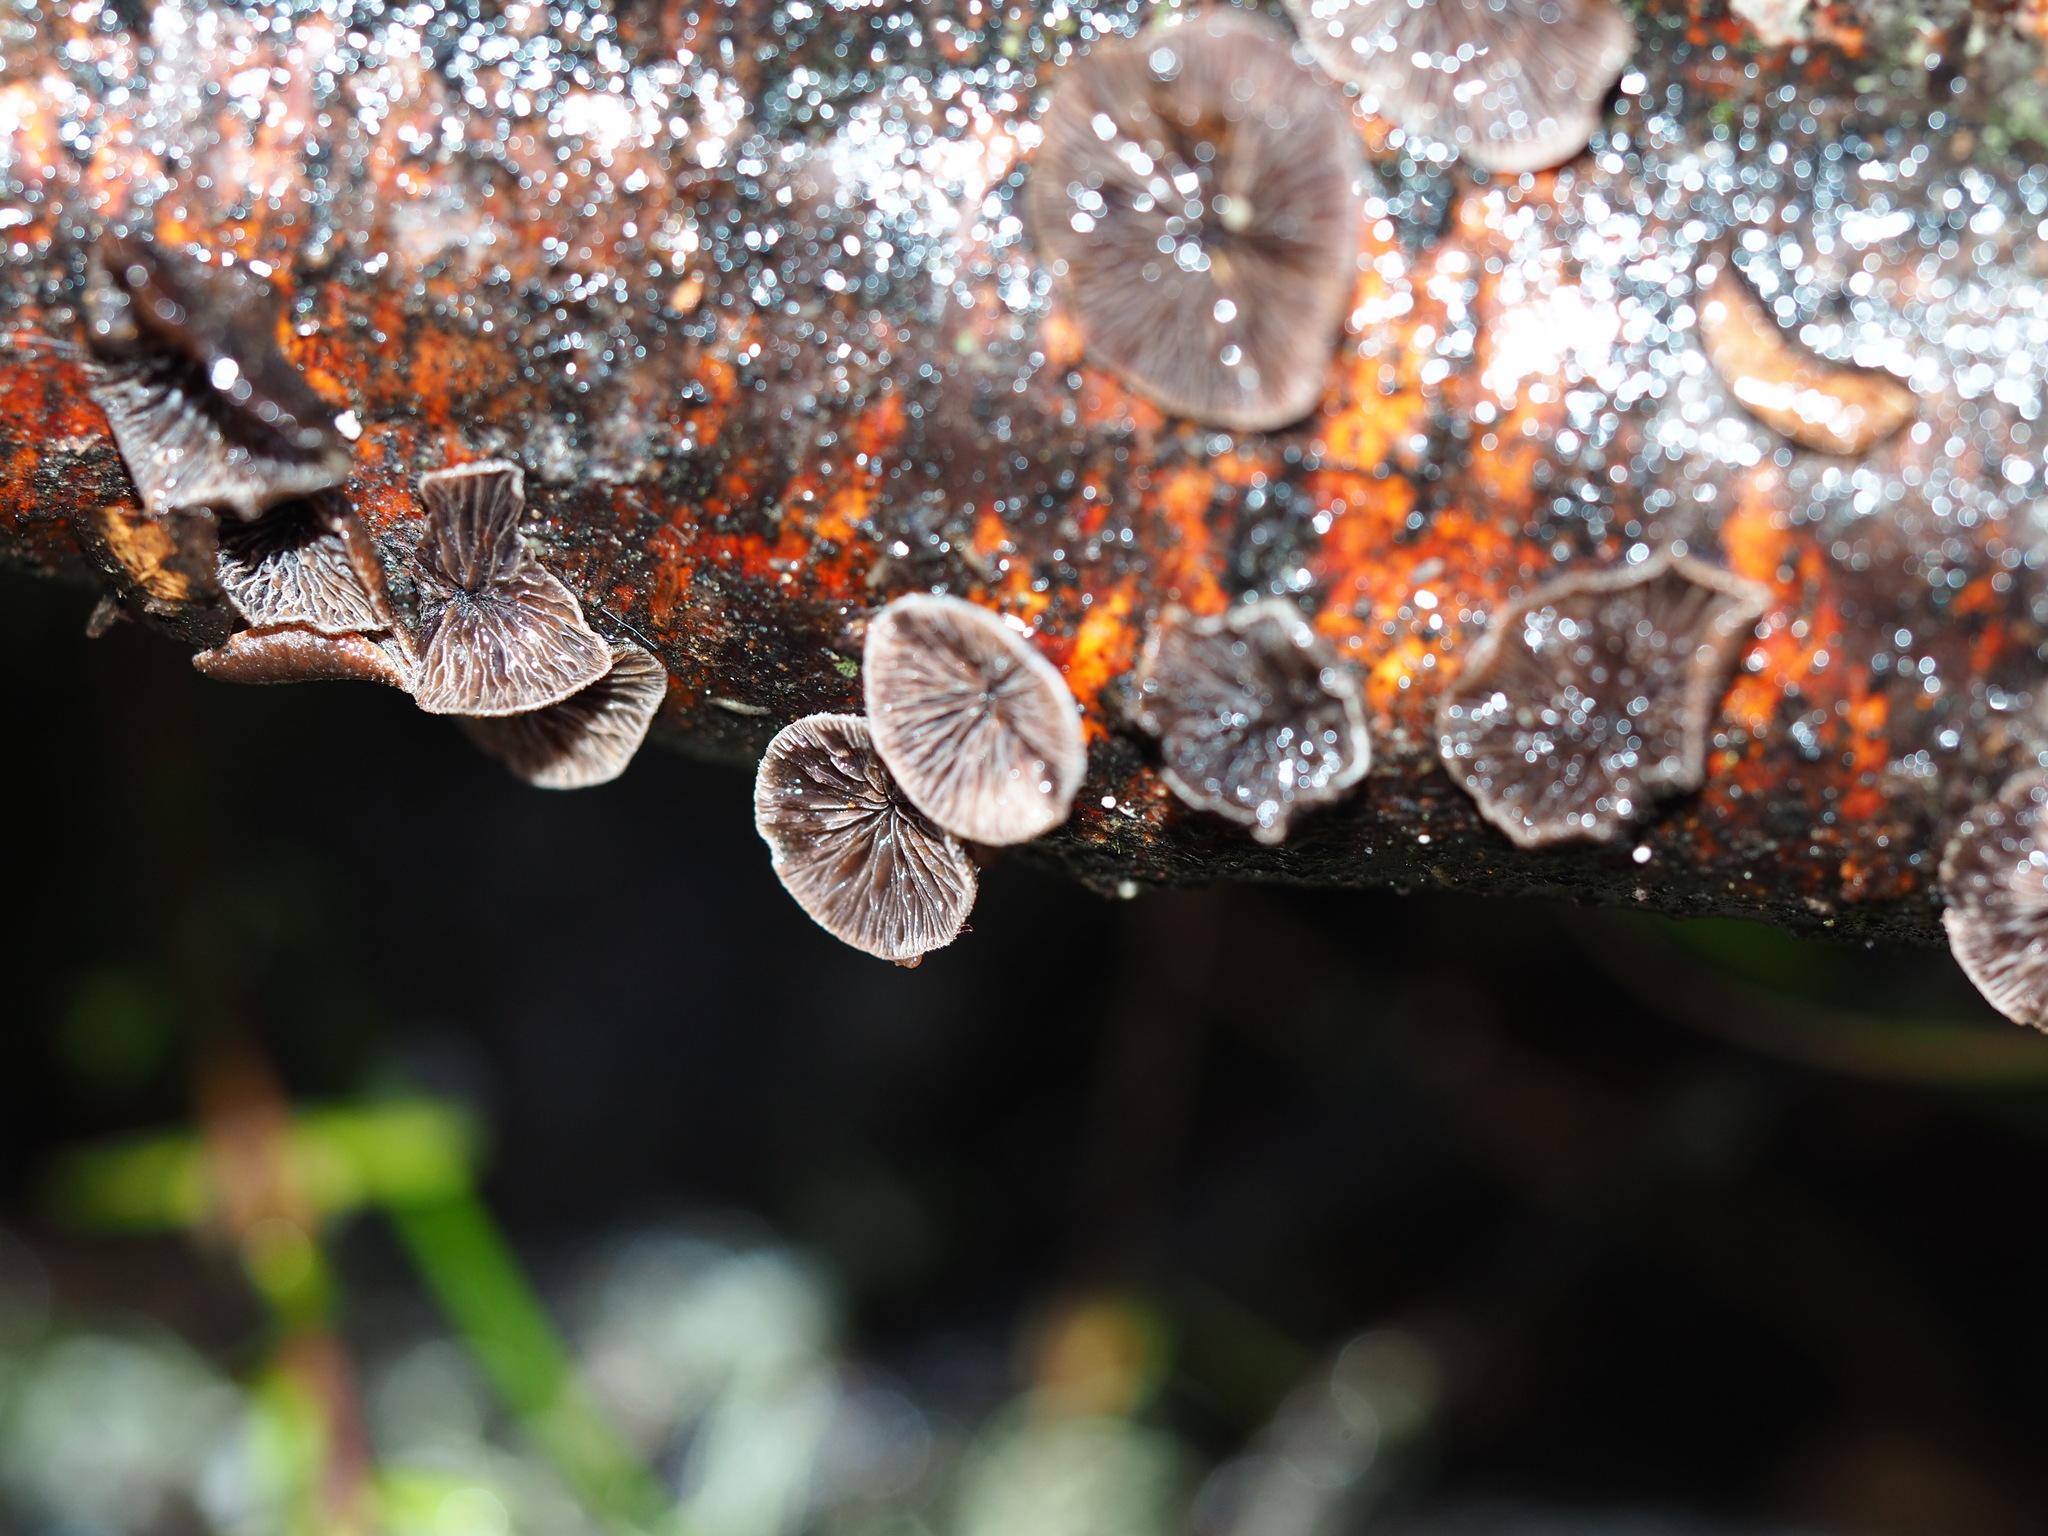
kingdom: Fungi
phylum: Basidiomycota
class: Agaricomycetes
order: Agaricales
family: Omphalotaceae
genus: Marasmiellus
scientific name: Marasmiellus violaceogriseus
